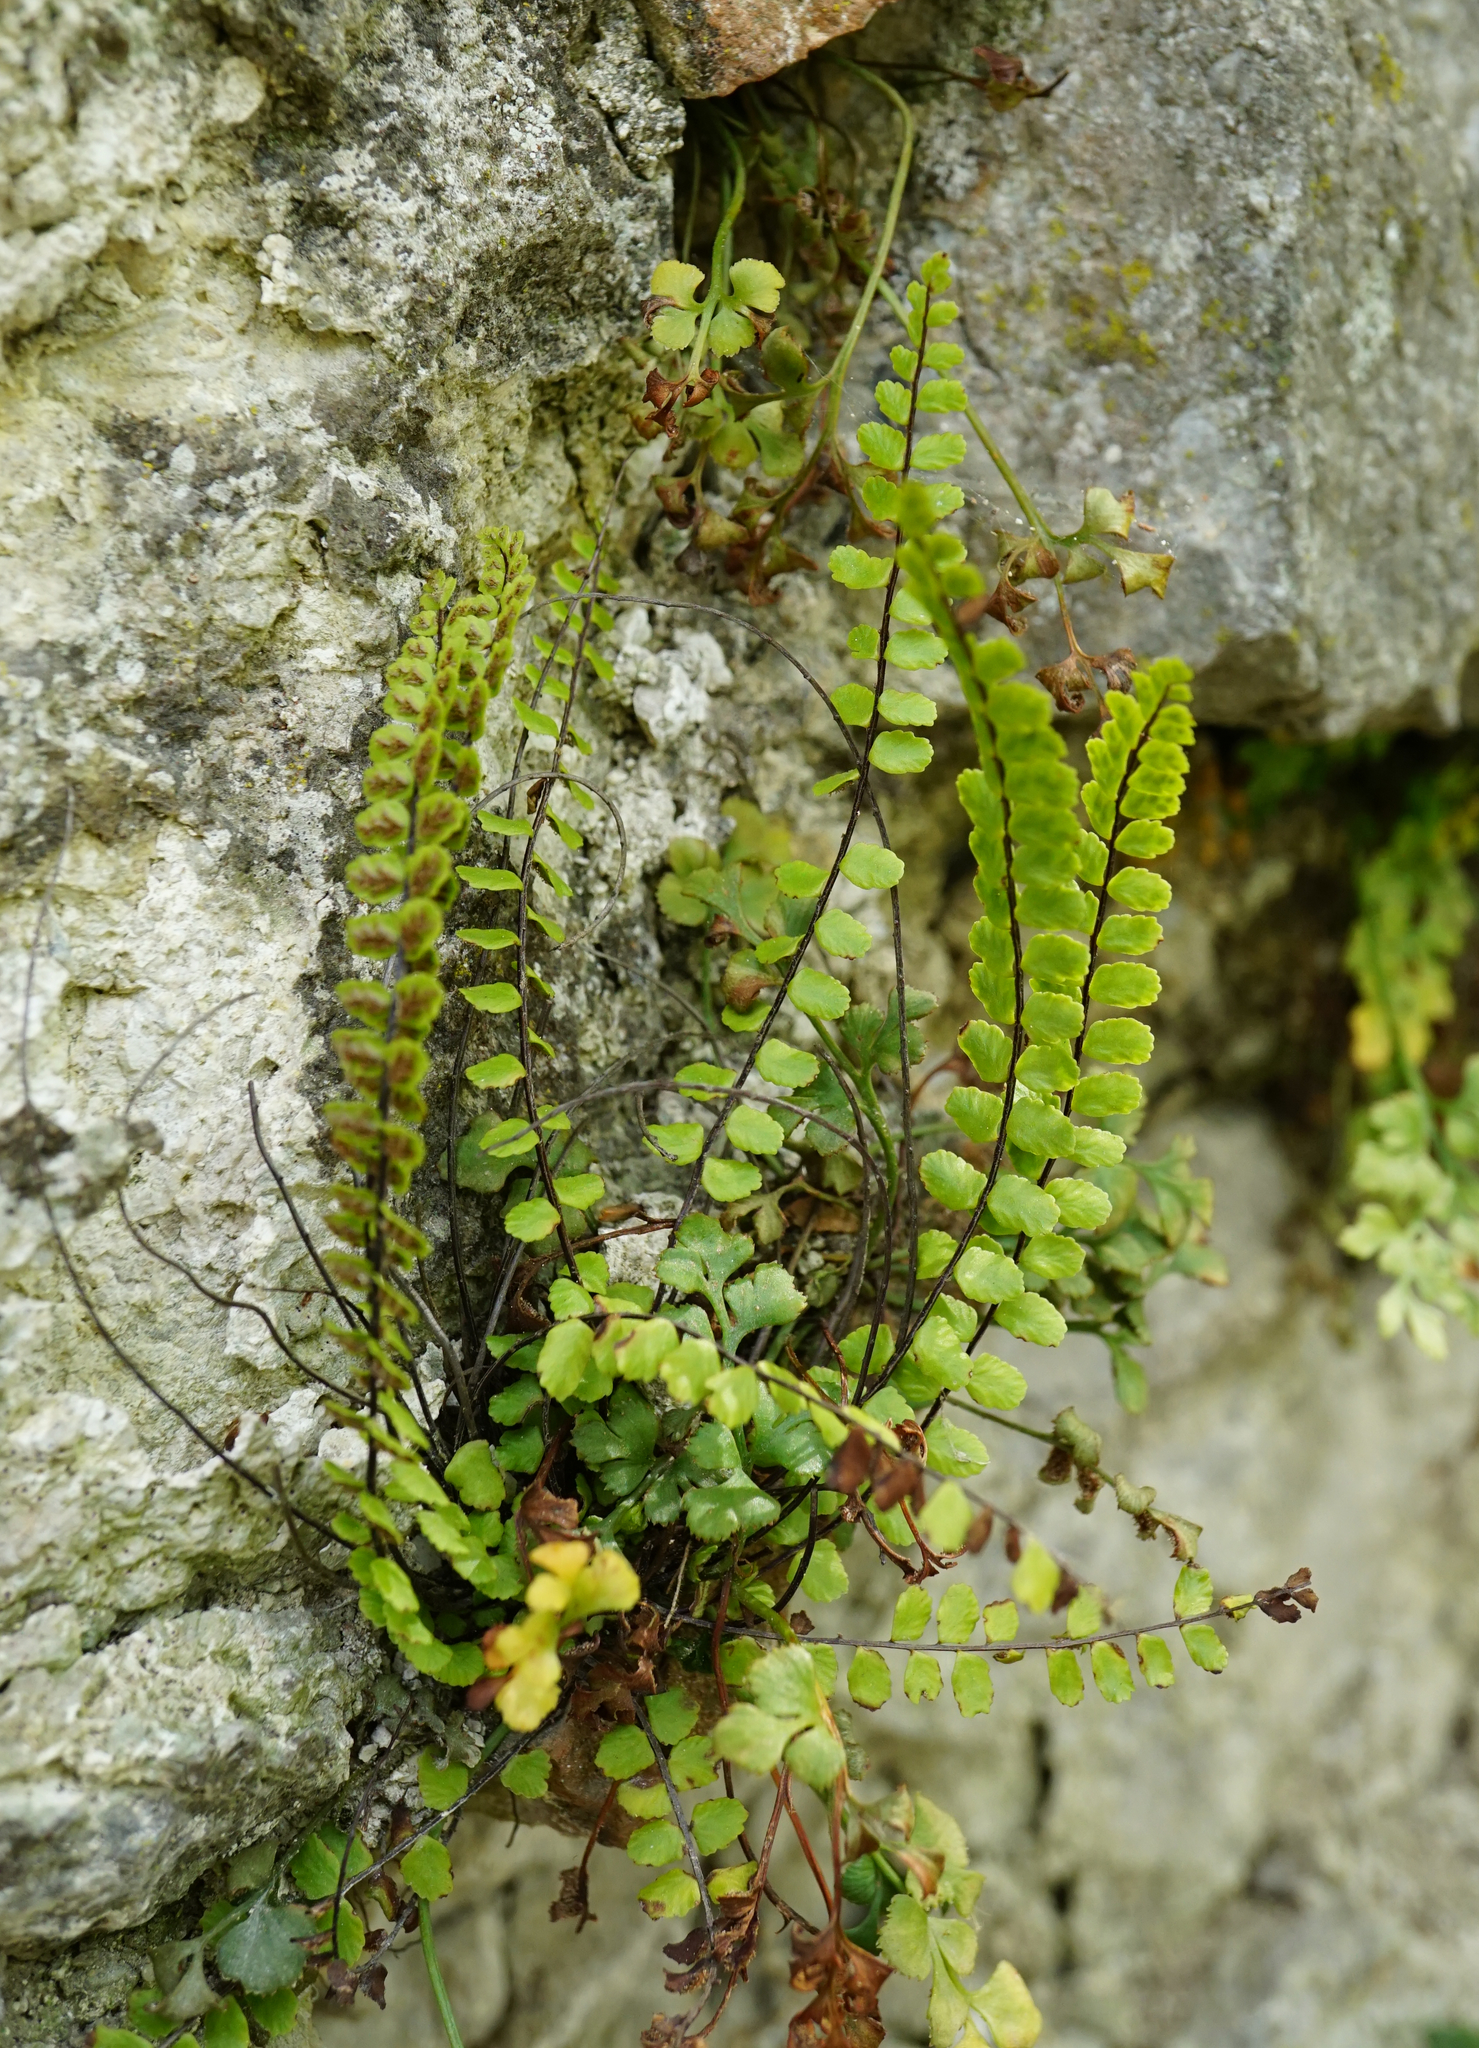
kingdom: Plantae
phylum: Tracheophyta
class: Polypodiopsida
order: Polypodiales
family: Aspleniaceae
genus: Asplenium
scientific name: Asplenium trichomanes
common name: Maidenhair spleenwort
